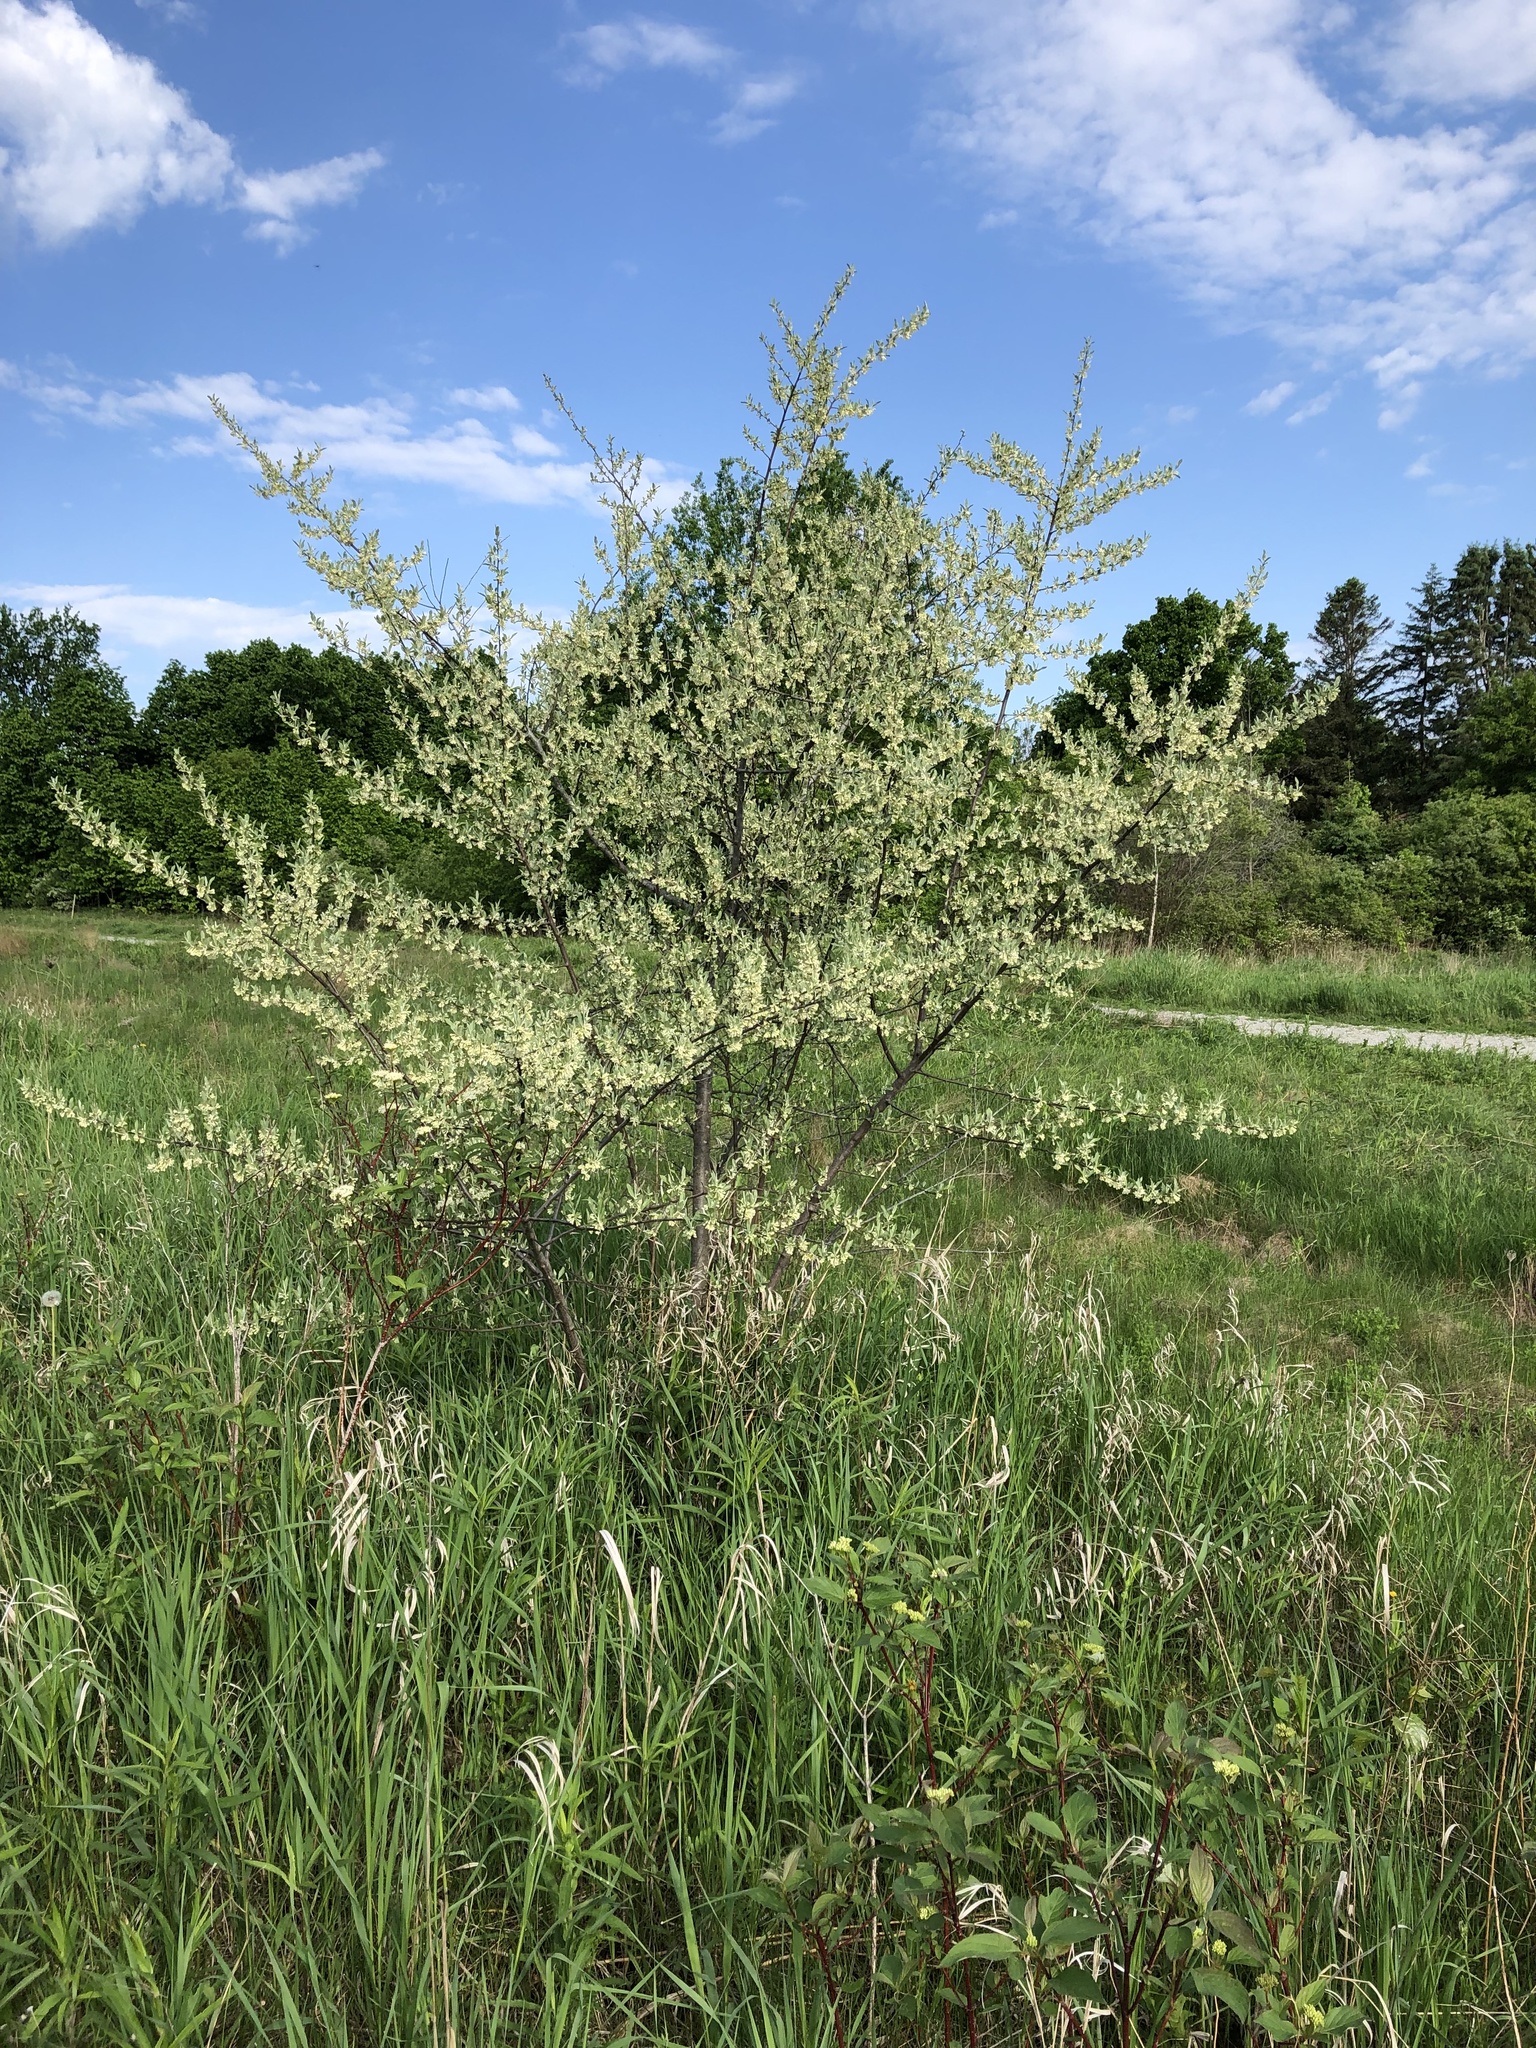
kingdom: Plantae
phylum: Tracheophyta
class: Magnoliopsida
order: Rosales
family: Elaeagnaceae
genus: Elaeagnus
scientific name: Elaeagnus umbellata
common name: Autumn olive
